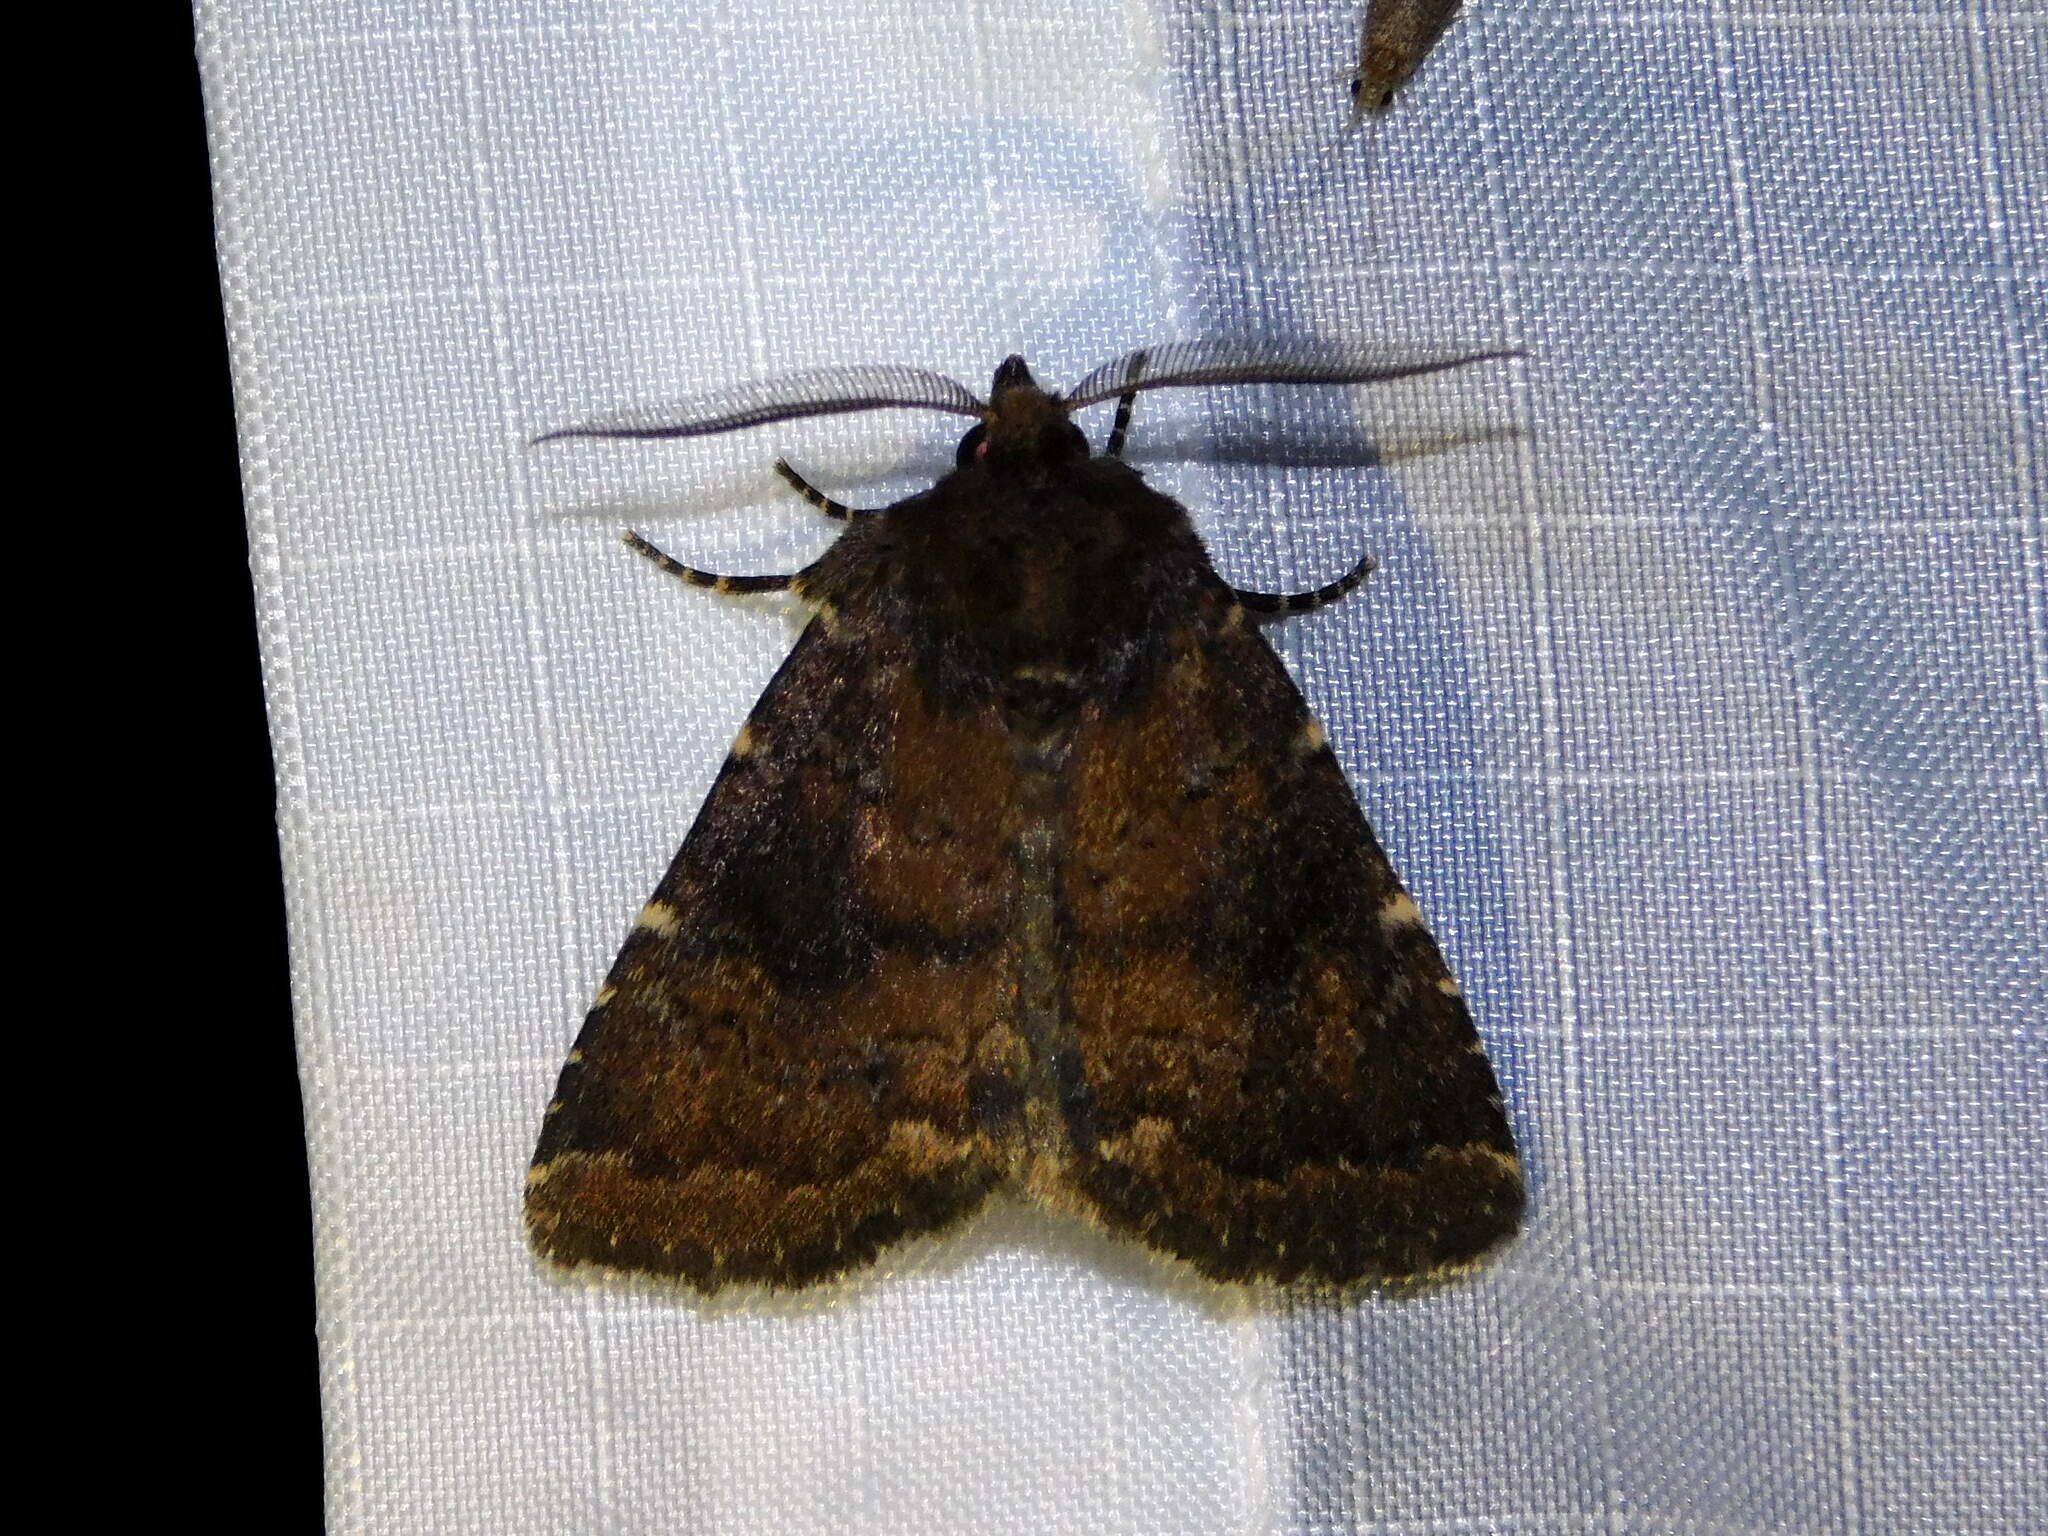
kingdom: Animalia
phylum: Arthropoda
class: Insecta
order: Lepidoptera
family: Noctuidae
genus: Charanyca
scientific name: Charanyca ferruginea
